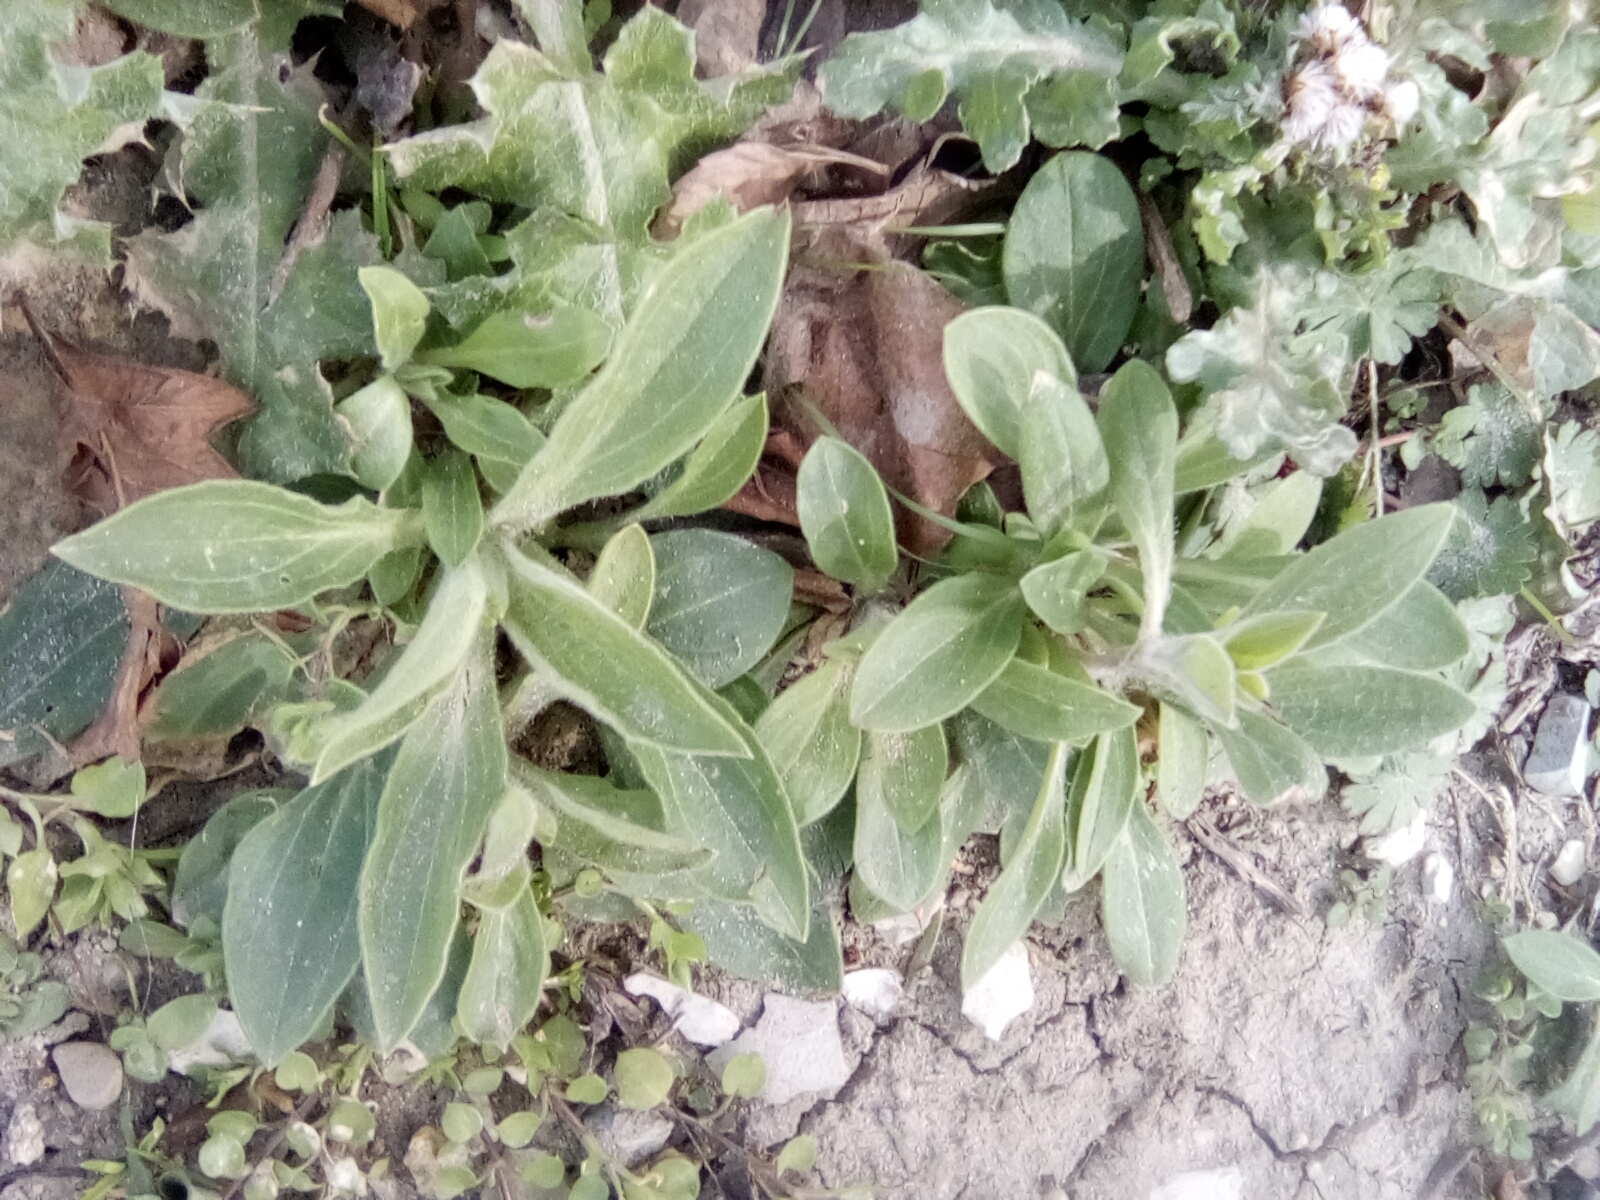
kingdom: Plantae
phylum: Tracheophyta
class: Magnoliopsida
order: Caryophyllales
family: Caryophyllaceae
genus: Silene
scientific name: Silene latifolia
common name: White campion
